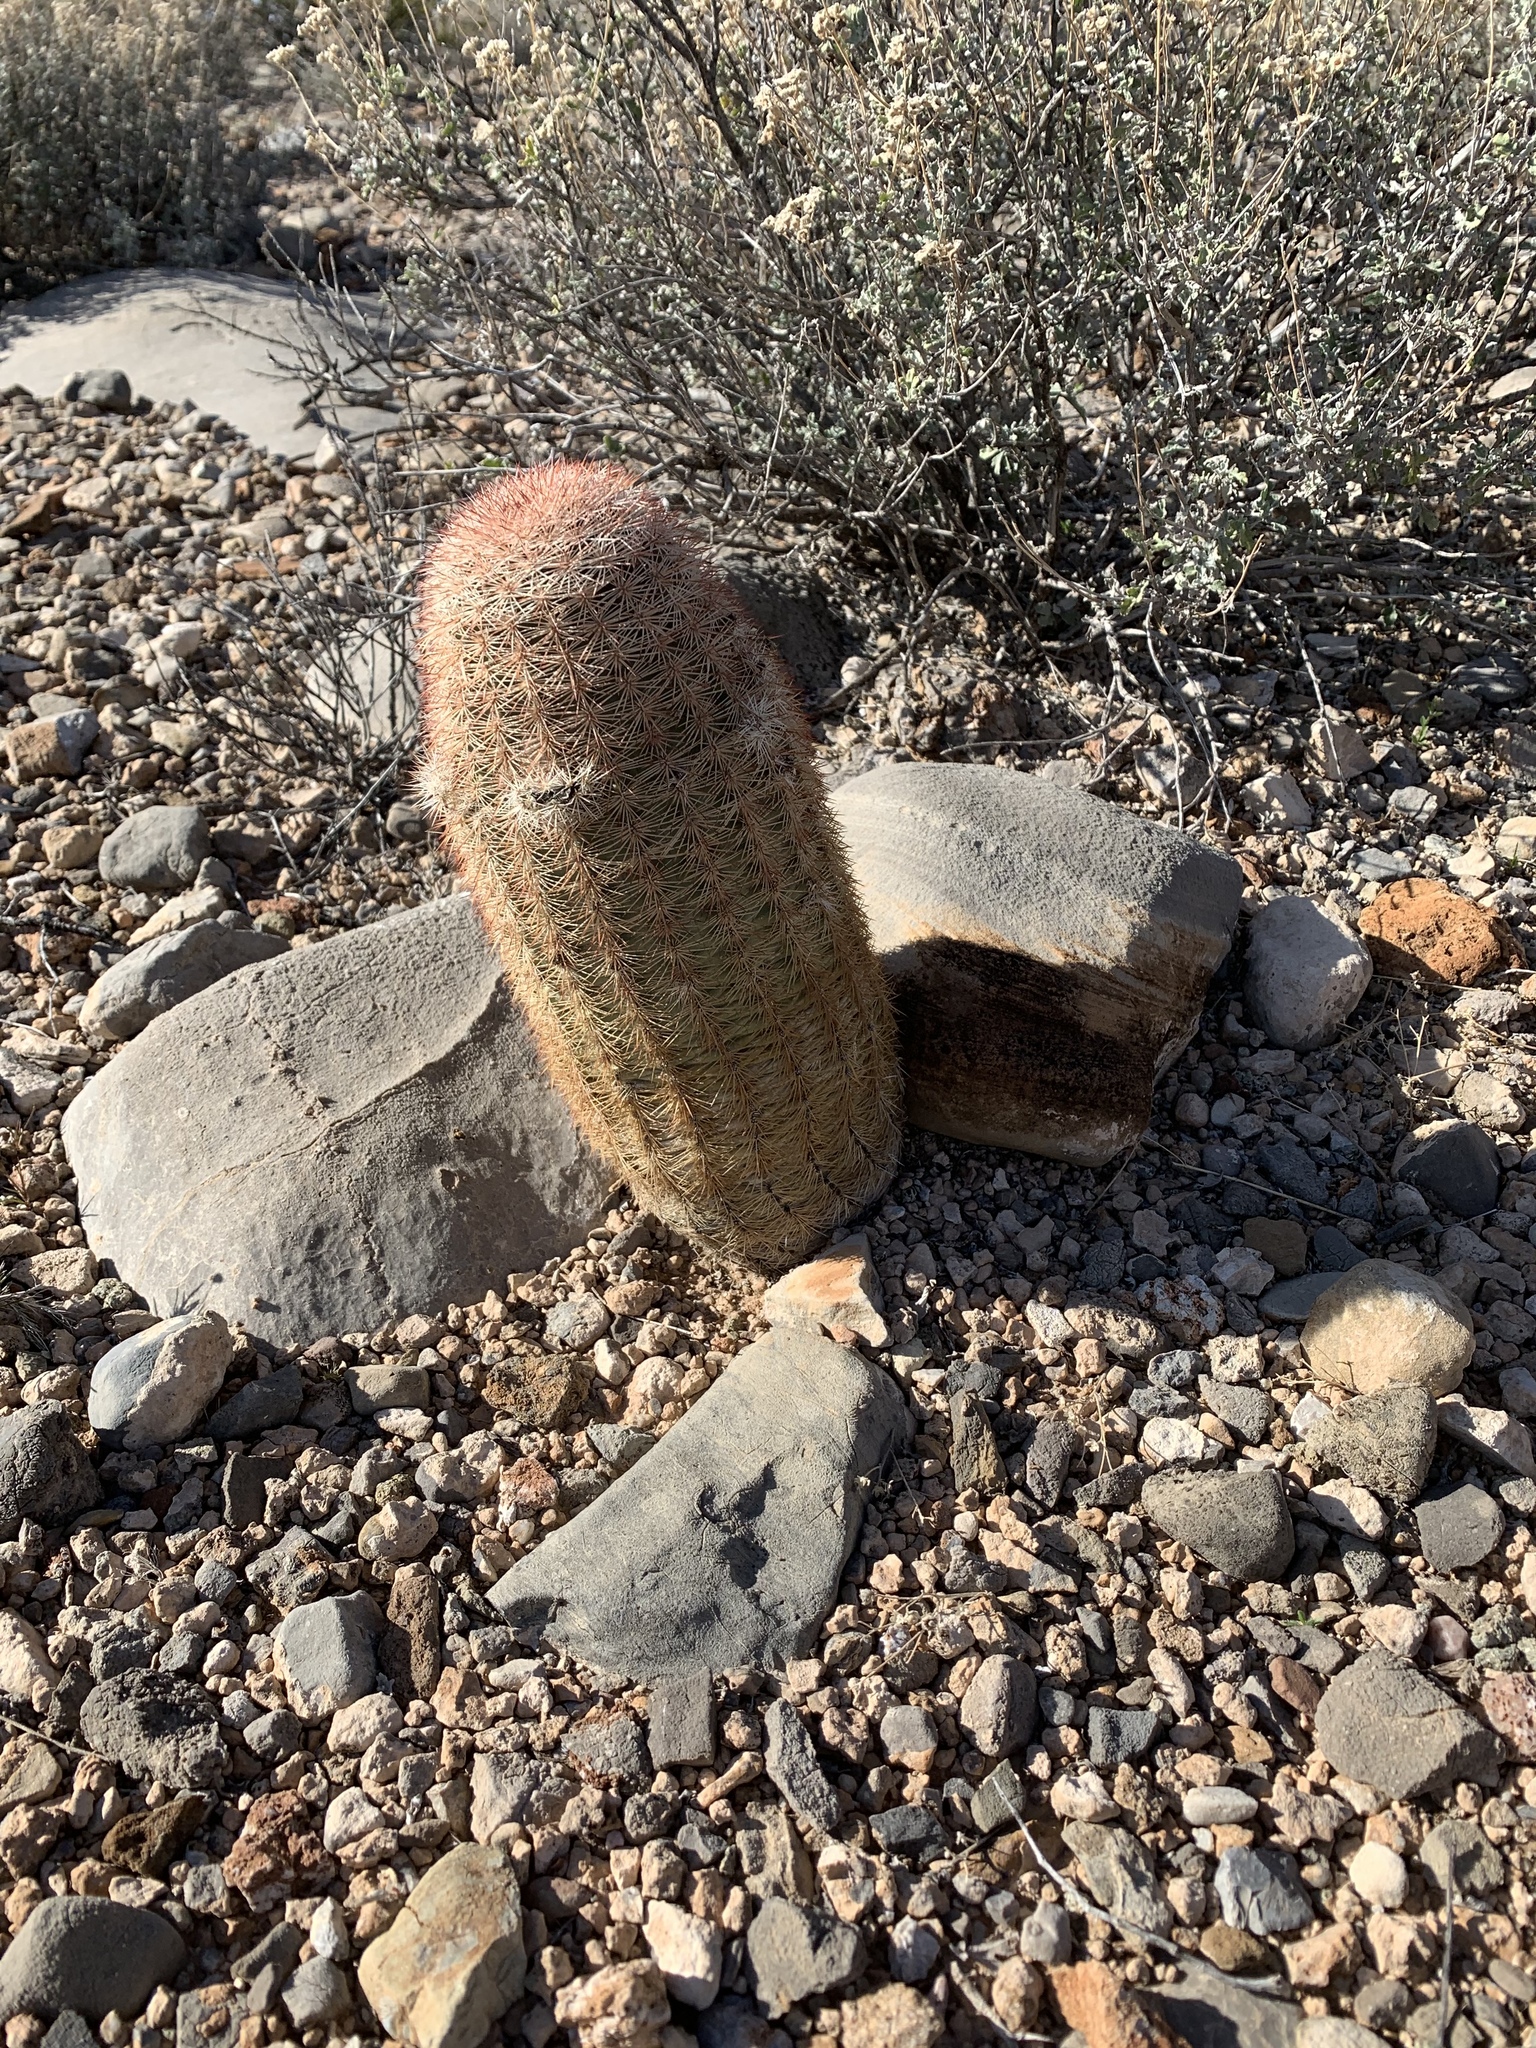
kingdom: Plantae
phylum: Tracheophyta
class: Magnoliopsida
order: Caryophyllales
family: Cactaceae
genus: Echinocereus
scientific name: Echinocereus dasyacanthus
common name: Spiny hedgehog cactus
